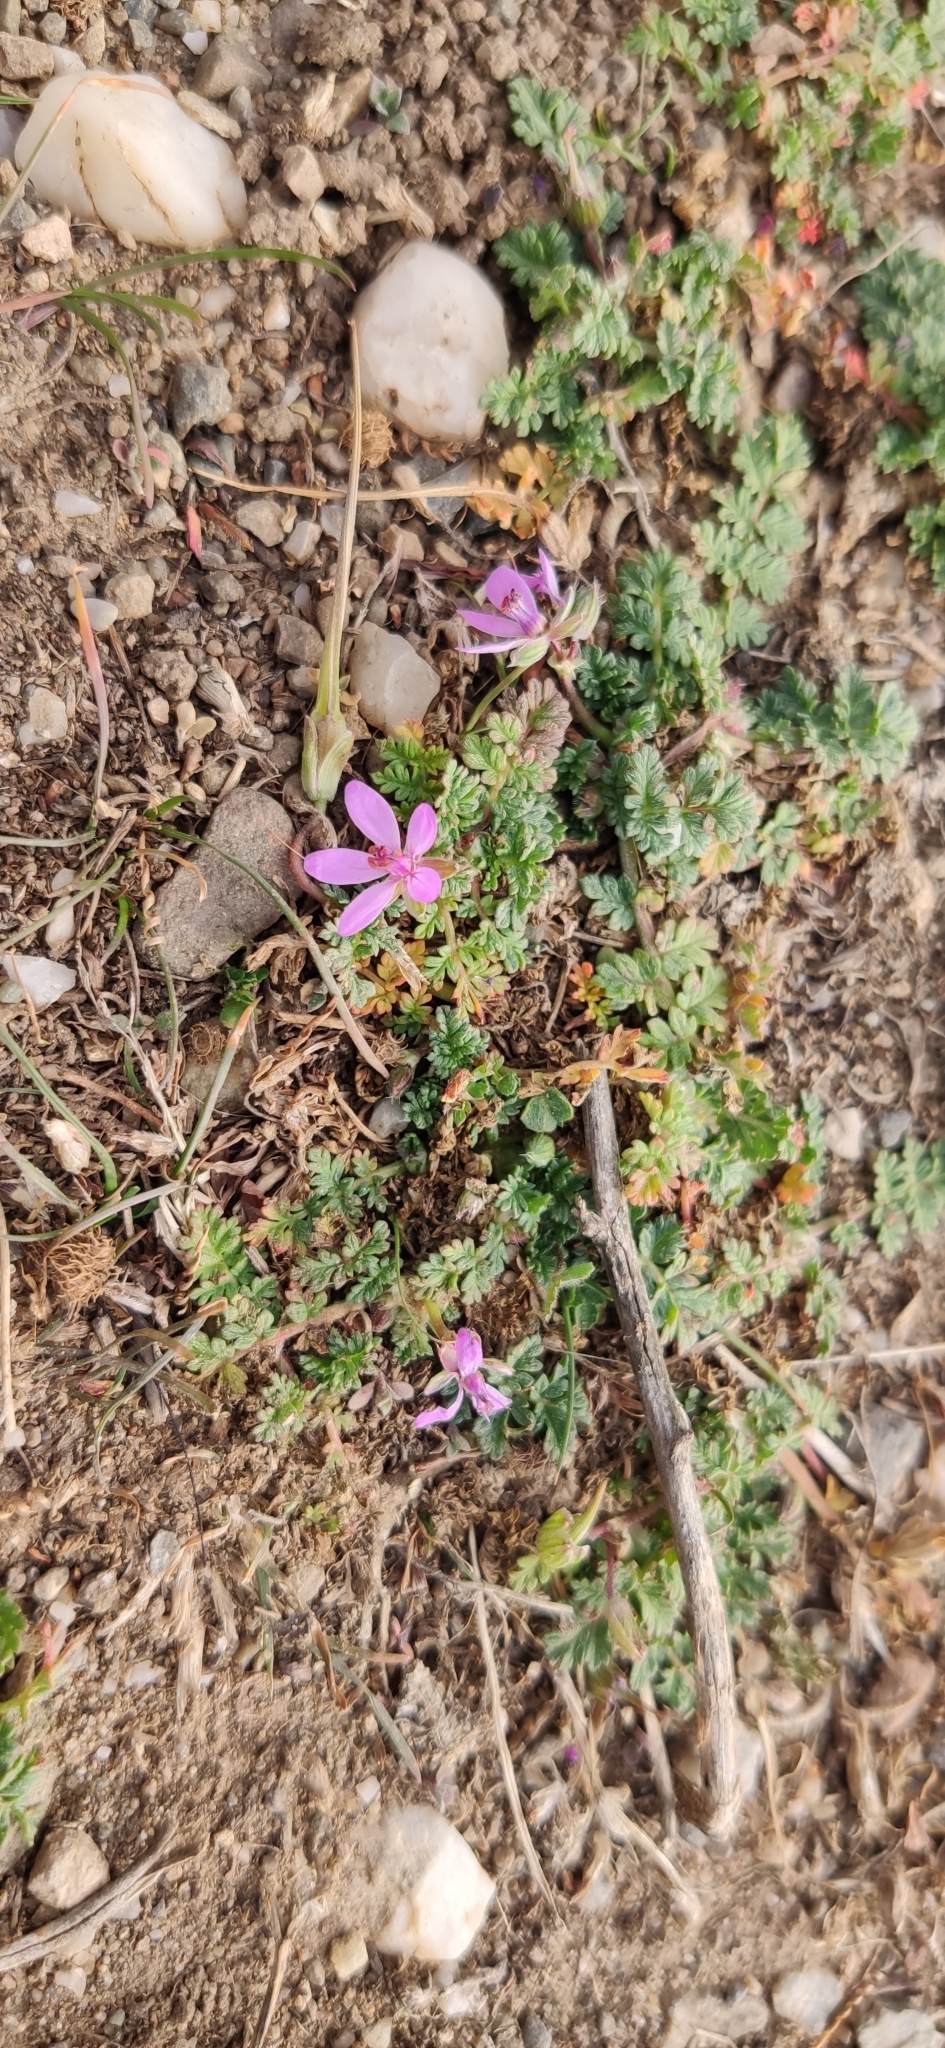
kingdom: Plantae
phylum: Tracheophyta
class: Magnoliopsida
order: Geraniales
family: Geraniaceae
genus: Erodium
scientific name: Erodium cicutarium
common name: Common stork's-bill
